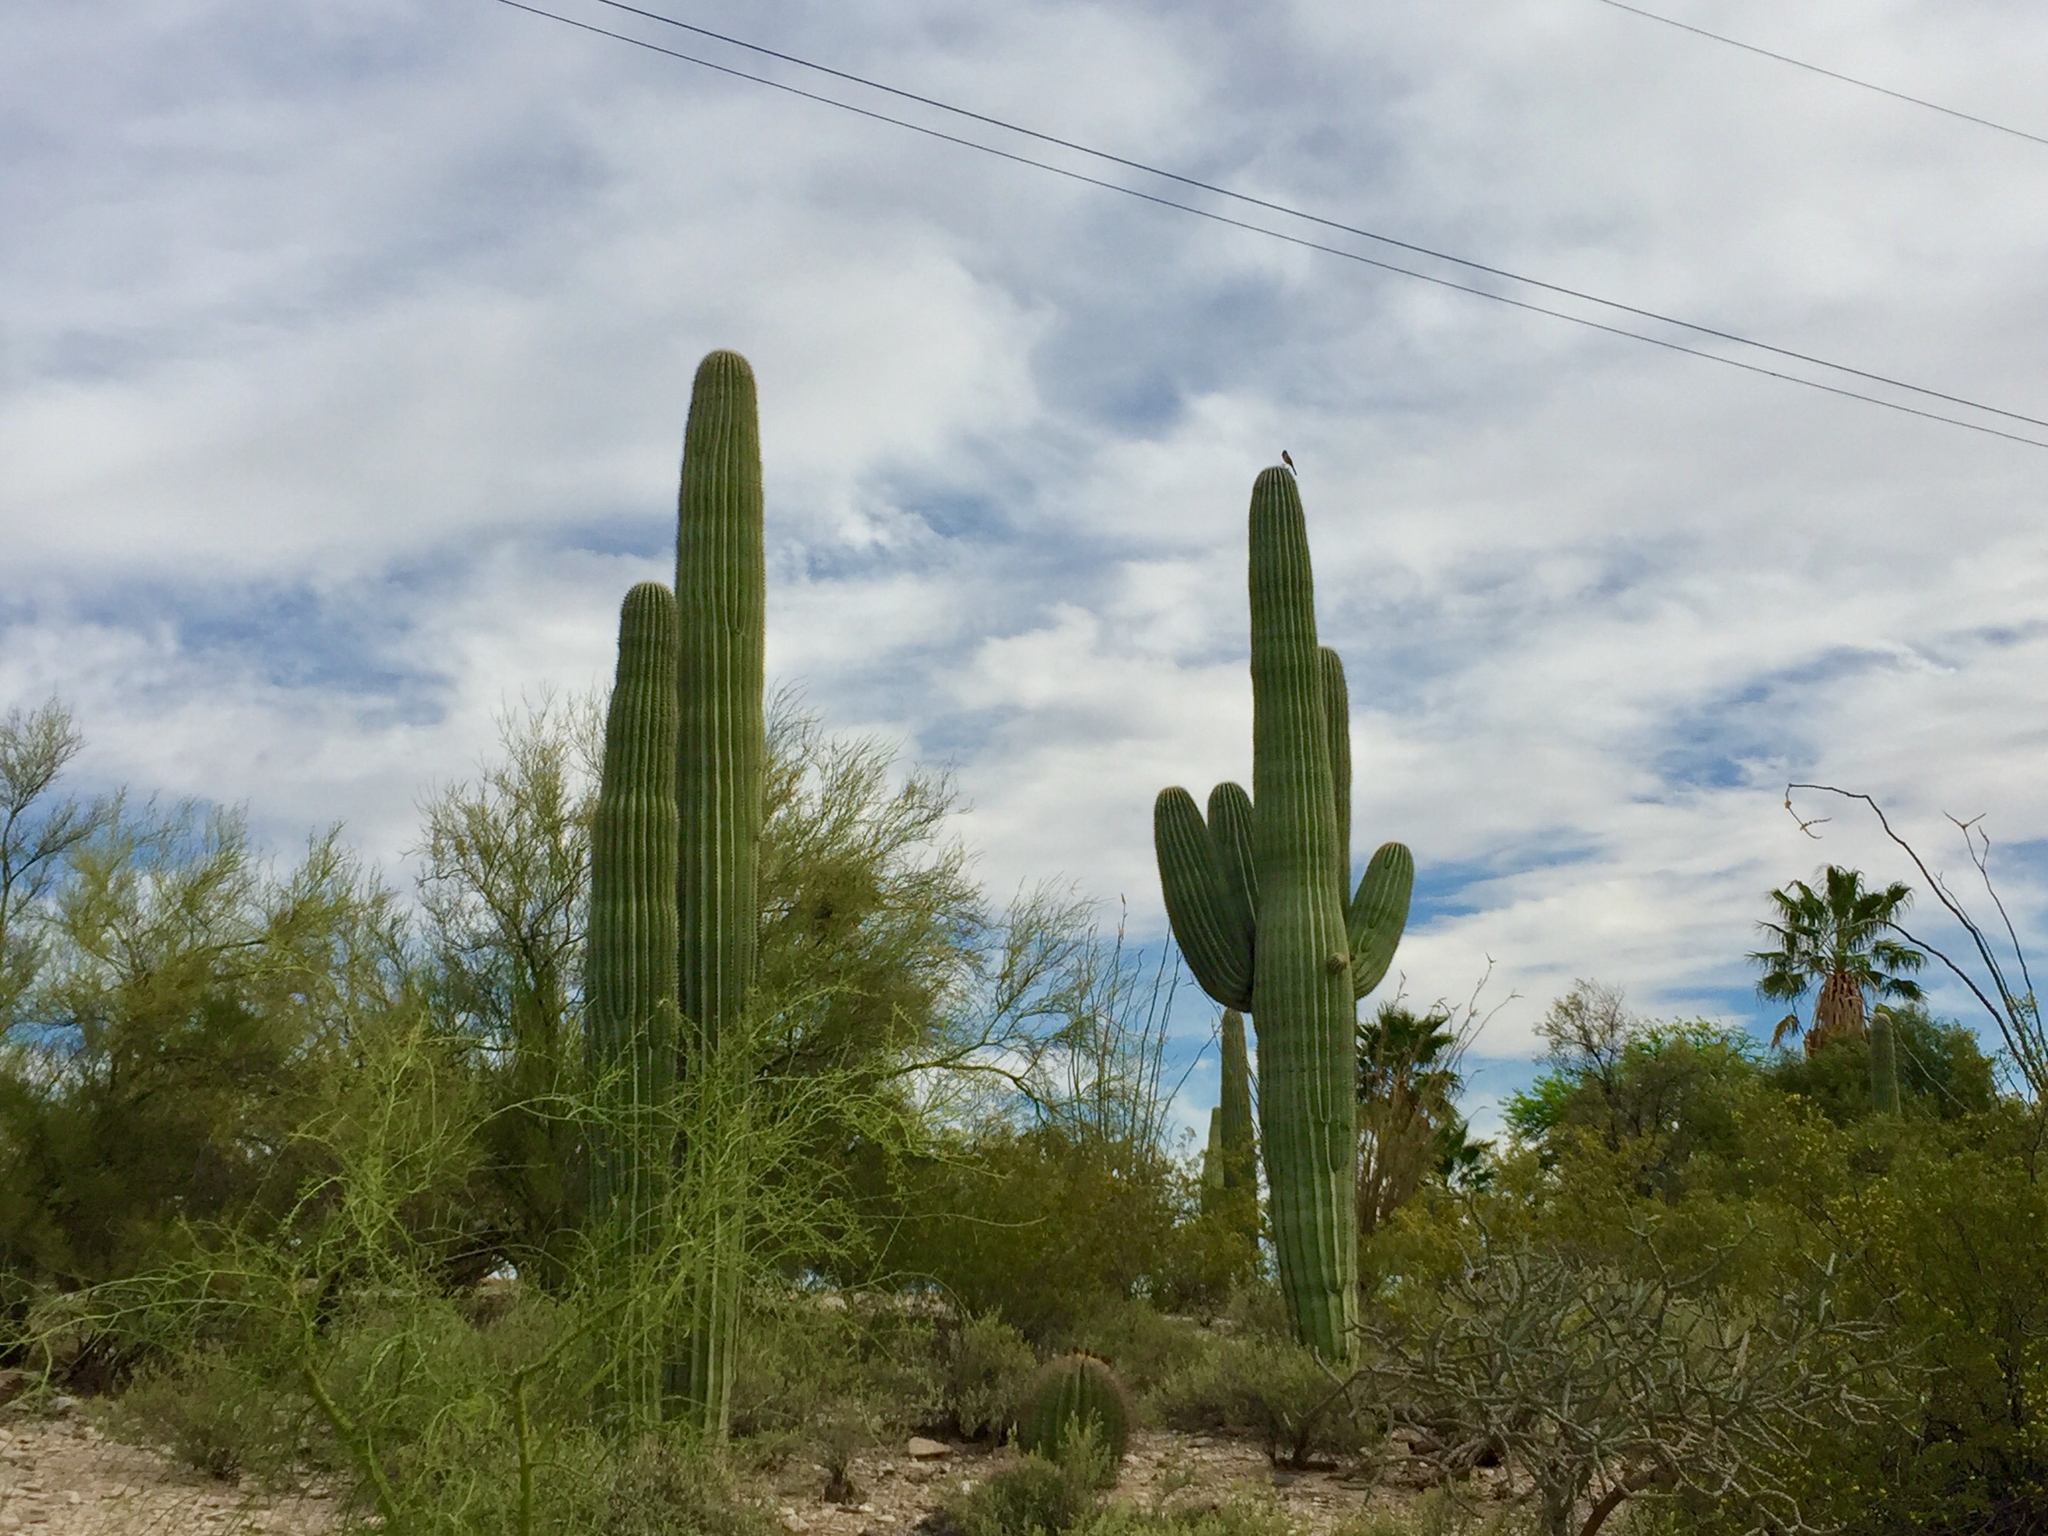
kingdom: Plantae
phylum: Tracheophyta
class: Magnoliopsida
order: Caryophyllales
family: Cactaceae
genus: Carnegiea
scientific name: Carnegiea gigantea
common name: Saguaro
